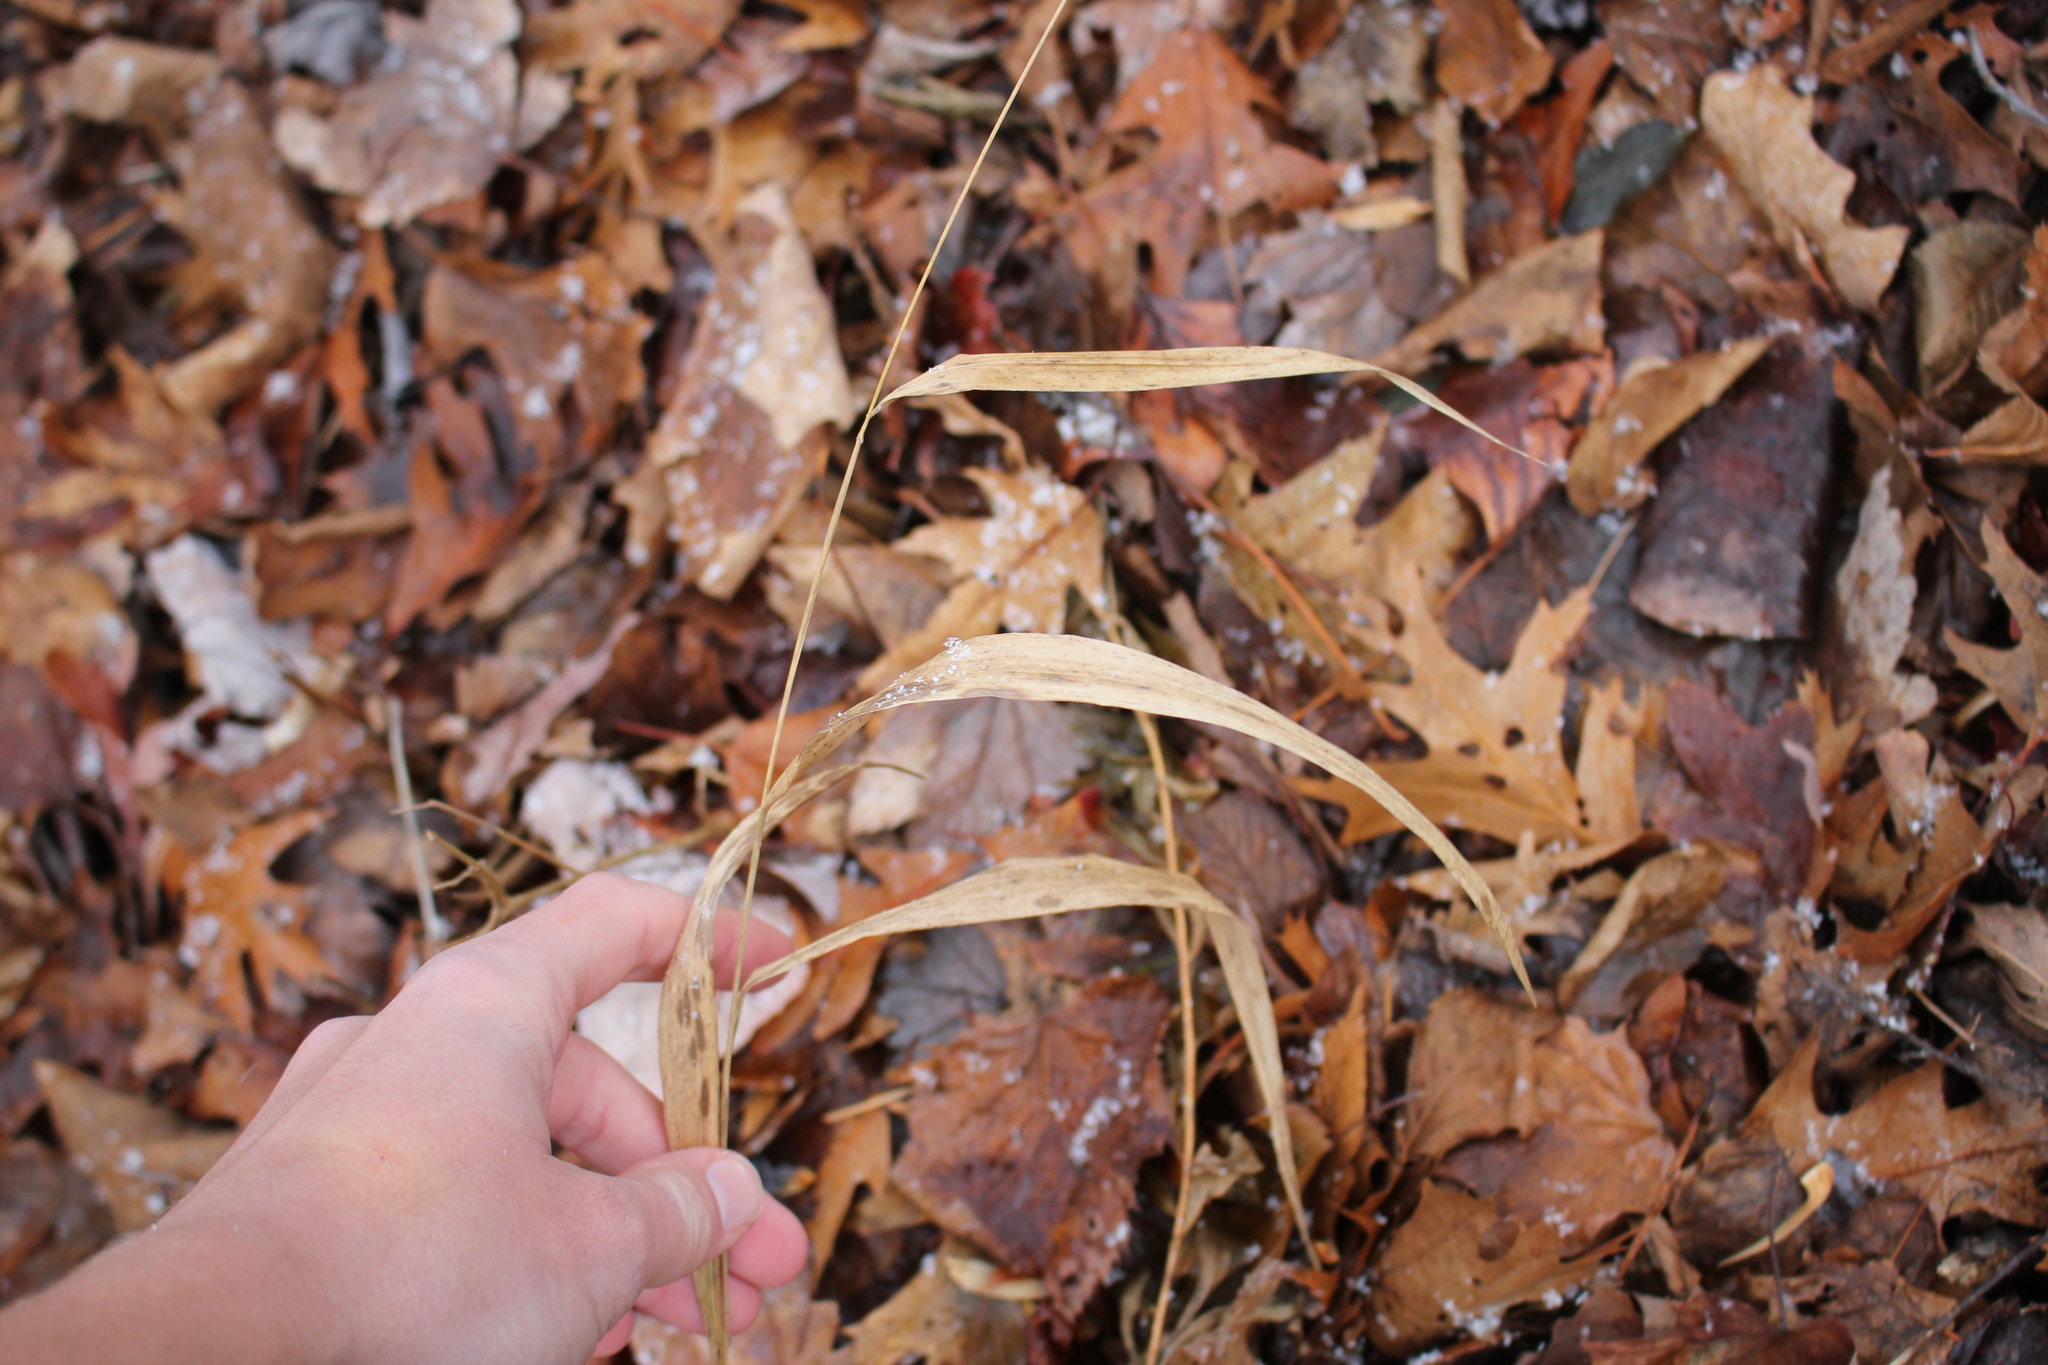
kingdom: Plantae
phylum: Tracheophyta
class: Liliopsida
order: Poales
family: Poaceae
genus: Patis
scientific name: Patis racemosa
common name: Black-fruited mountain rice
